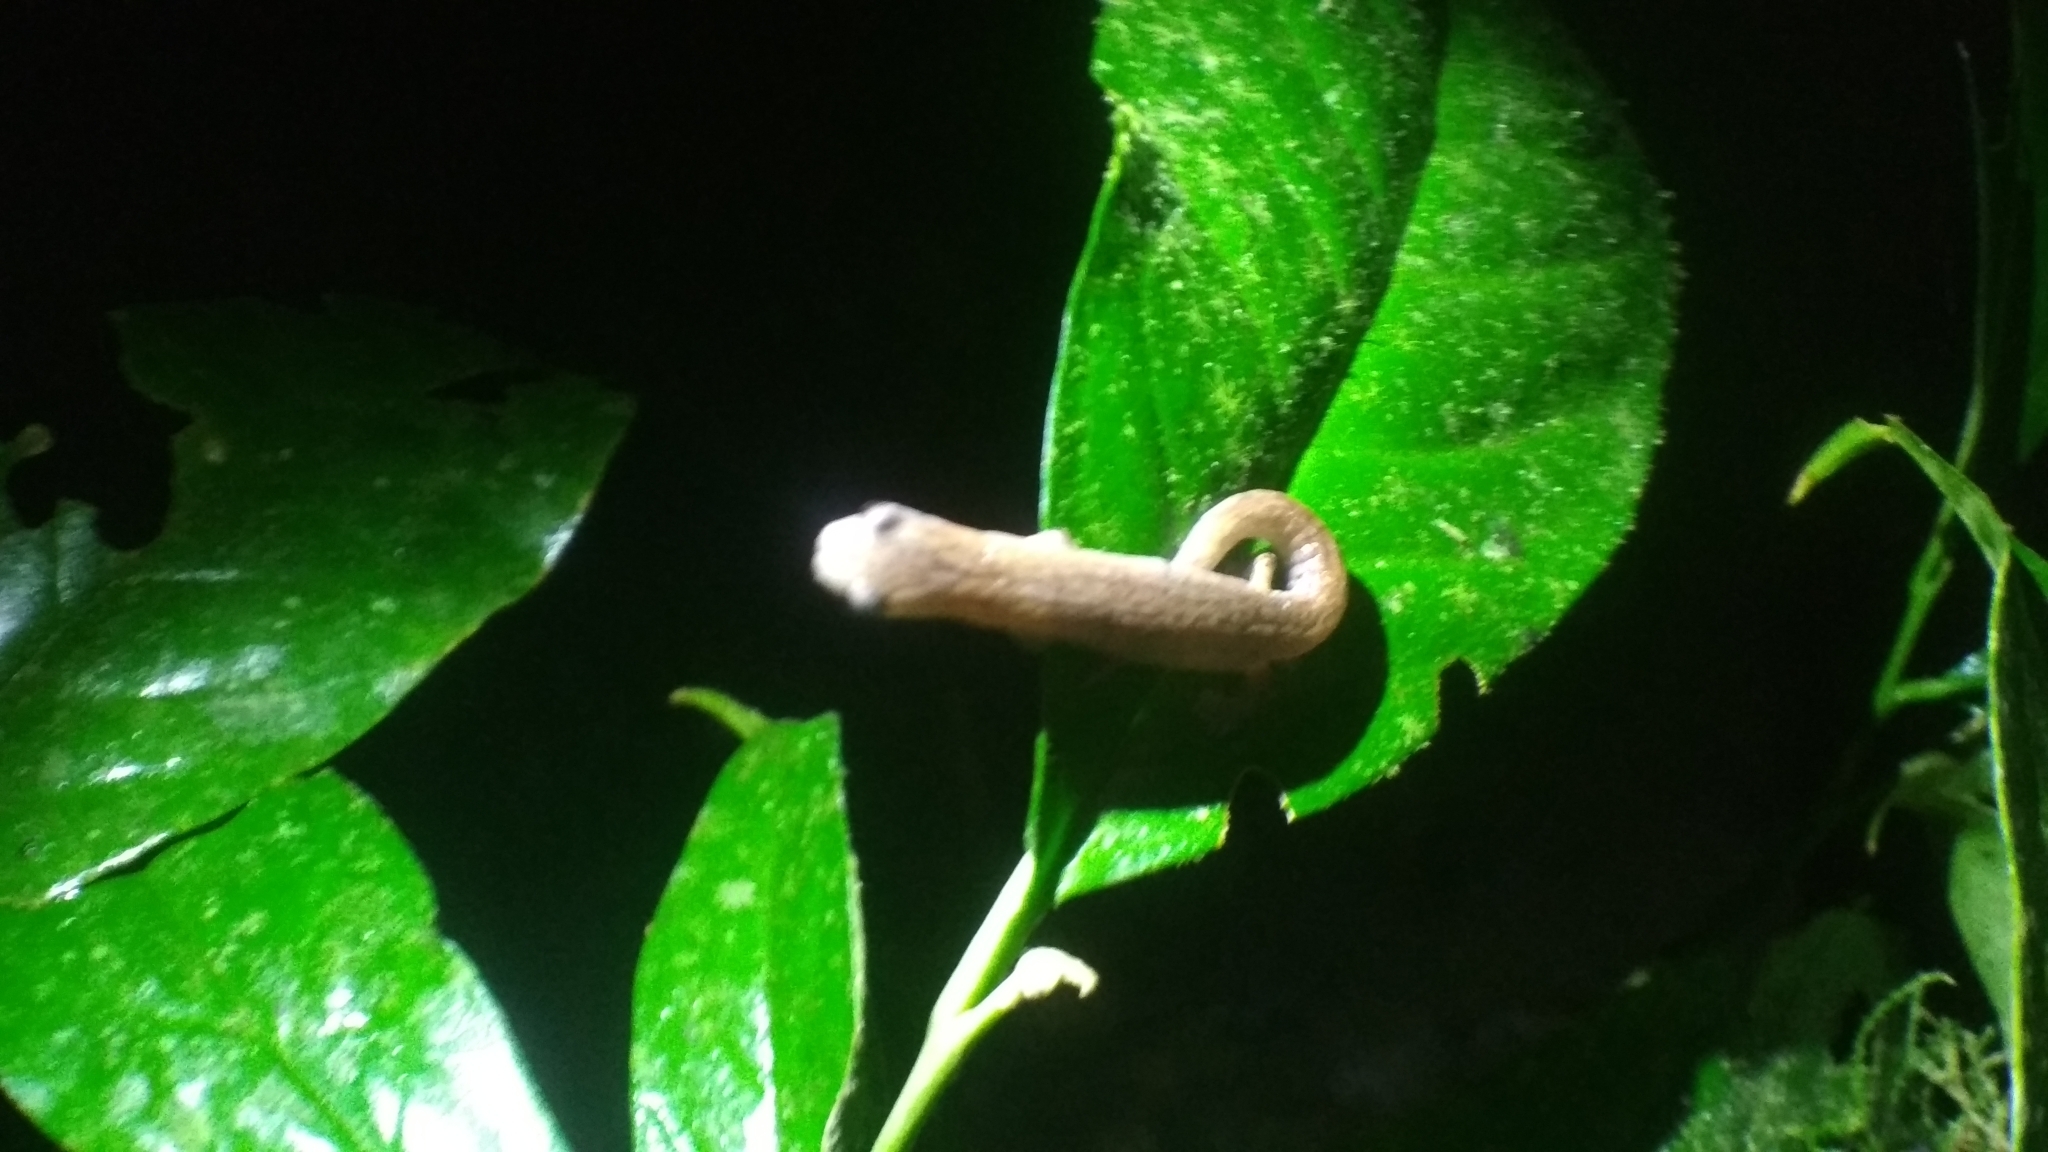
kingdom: Animalia
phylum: Chordata
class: Amphibia
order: Caudata
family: Plethodontidae
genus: Bolitoglossa
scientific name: Bolitoglossa peruviana
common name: Peru mushroomtongue salamander
